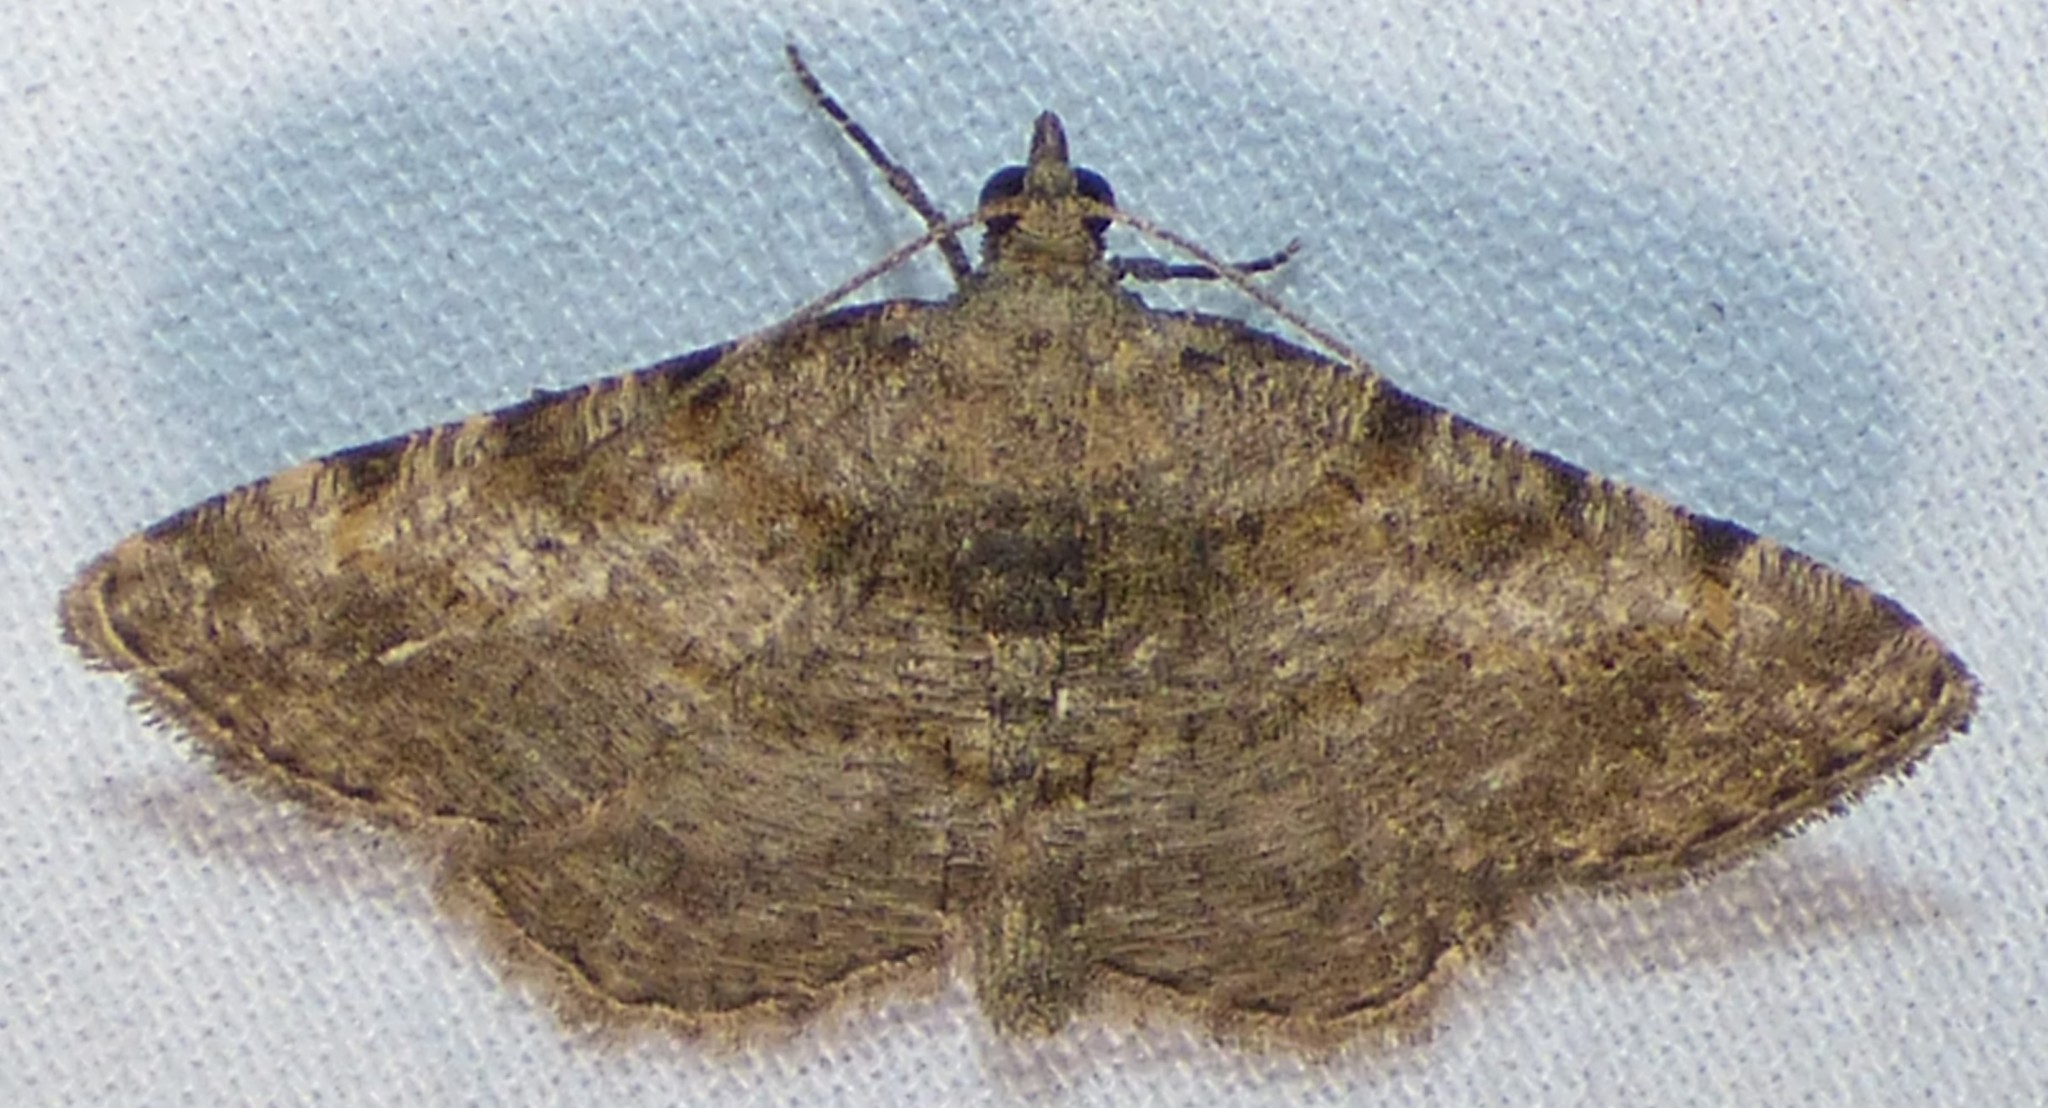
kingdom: Animalia
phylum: Arthropoda
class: Insecta
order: Lepidoptera
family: Geometridae
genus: Digrammia
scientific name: Digrammia gnophosaria
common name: Hollow-spotted angle
